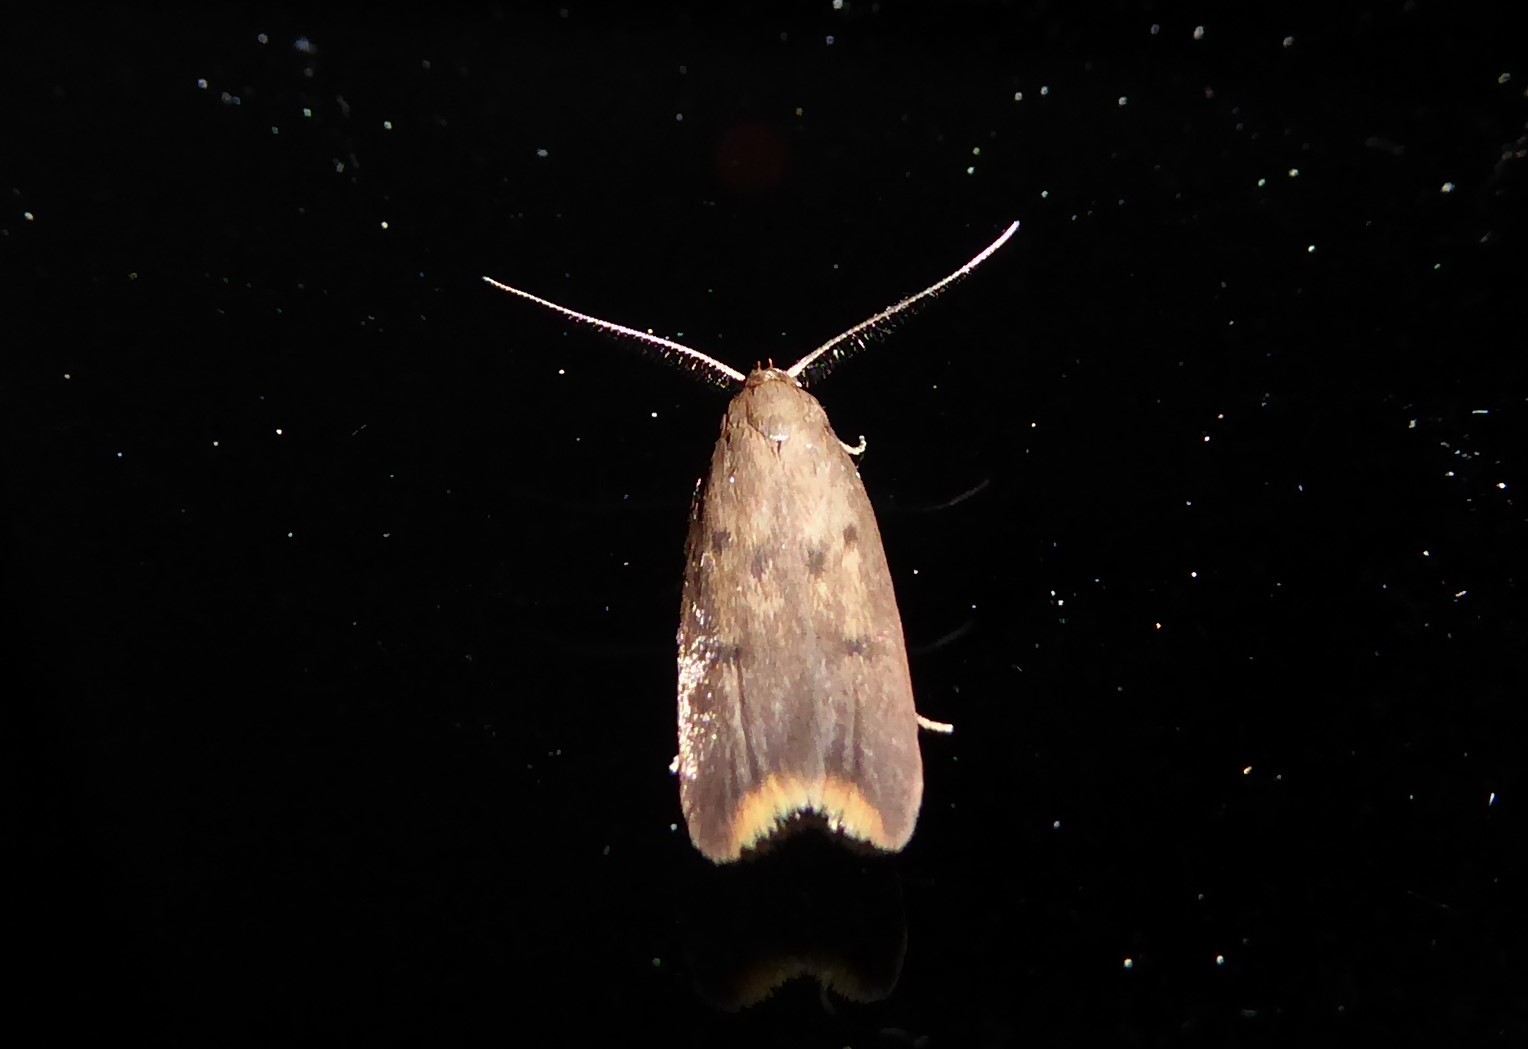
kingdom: Animalia
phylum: Arthropoda
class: Insecta
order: Lepidoptera
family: Oecophoridae
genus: Tachystola
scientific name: Tachystola acroxantha
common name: Ruddy streak
